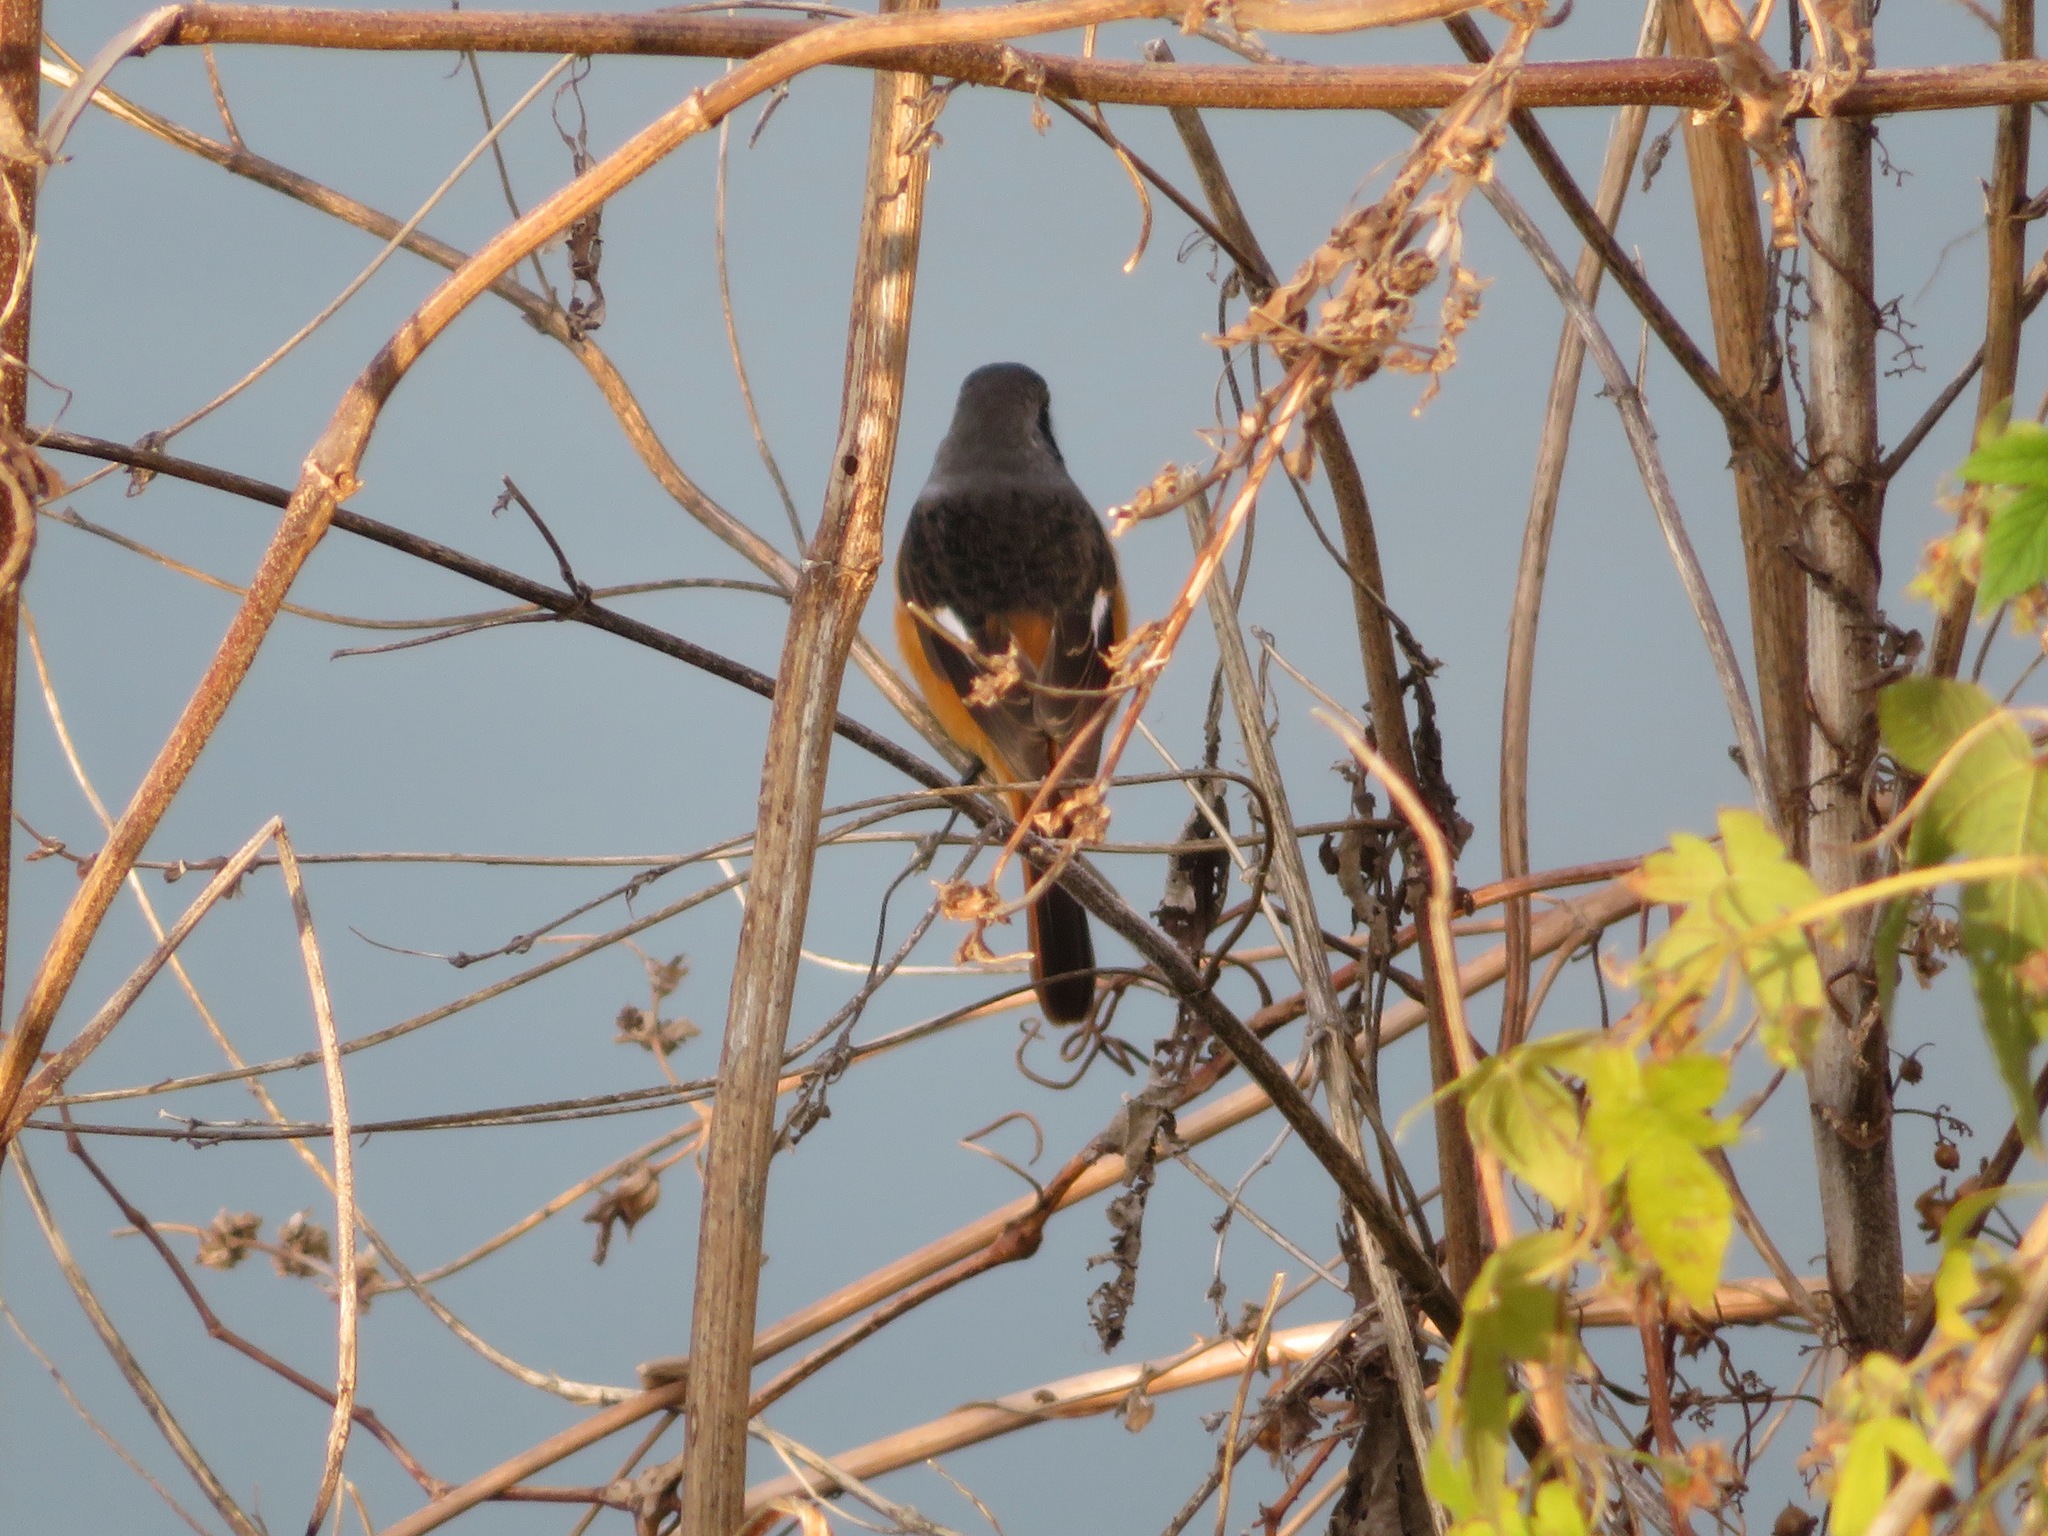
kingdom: Animalia
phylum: Chordata
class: Aves
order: Passeriformes
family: Muscicapidae
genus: Phoenicurus
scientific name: Phoenicurus auroreus
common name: Daurian redstart
